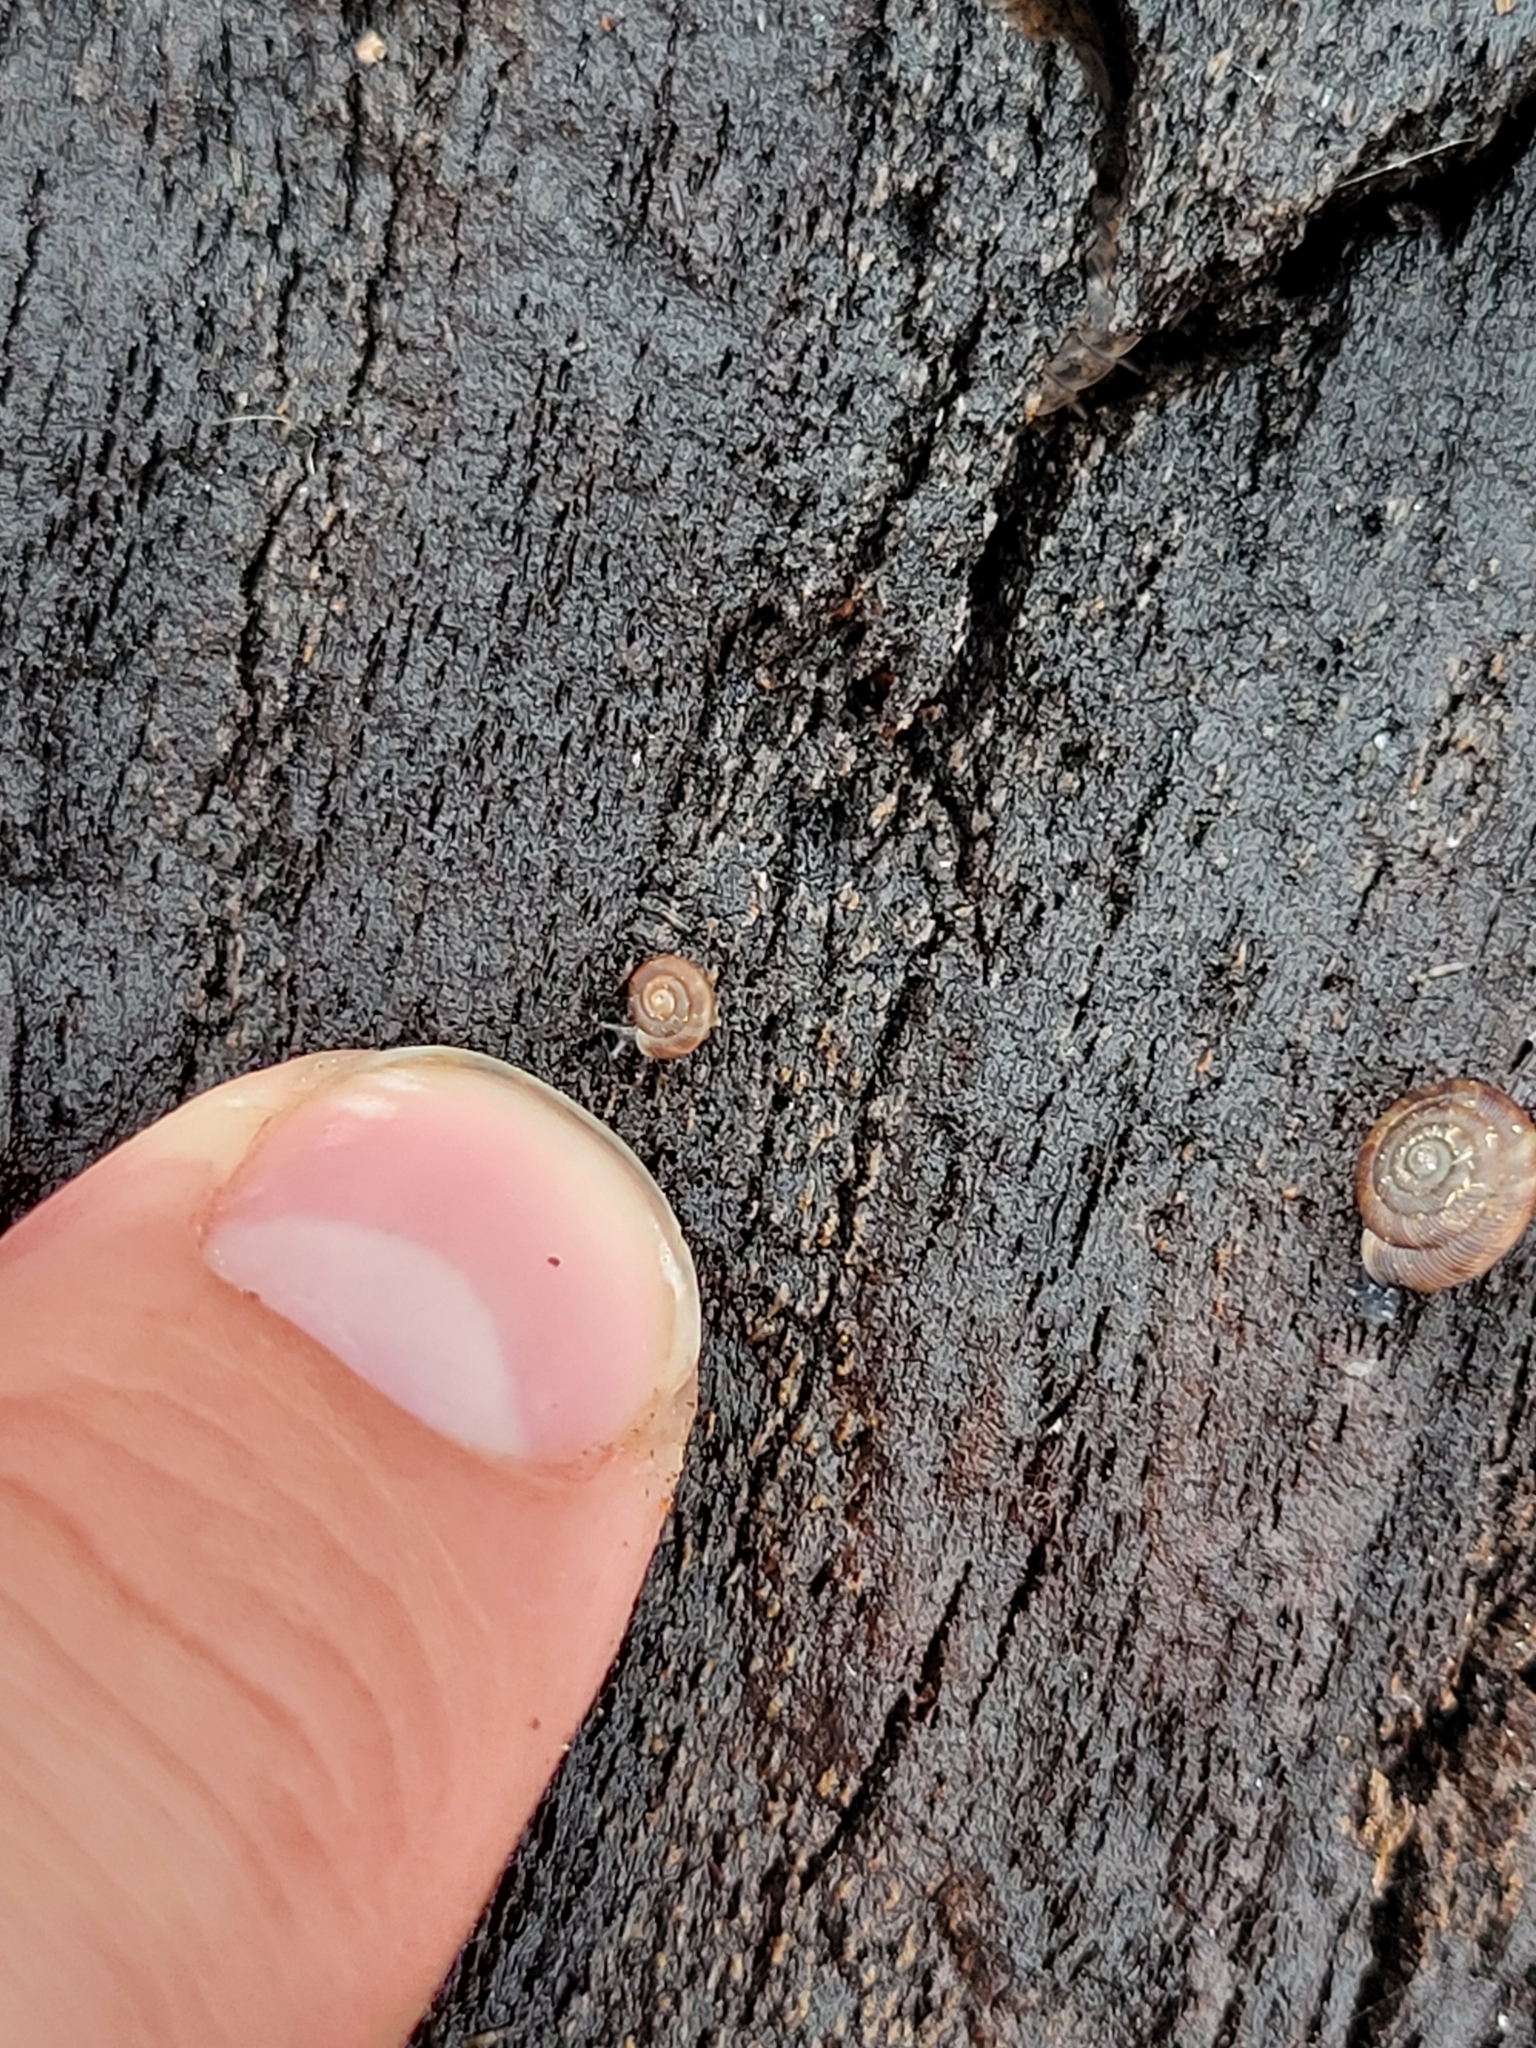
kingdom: Animalia
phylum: Mollusca
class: Gastropoda
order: Stylommatophora
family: Discidae
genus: Discus
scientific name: Discus rotundatus
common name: Rounded snail
